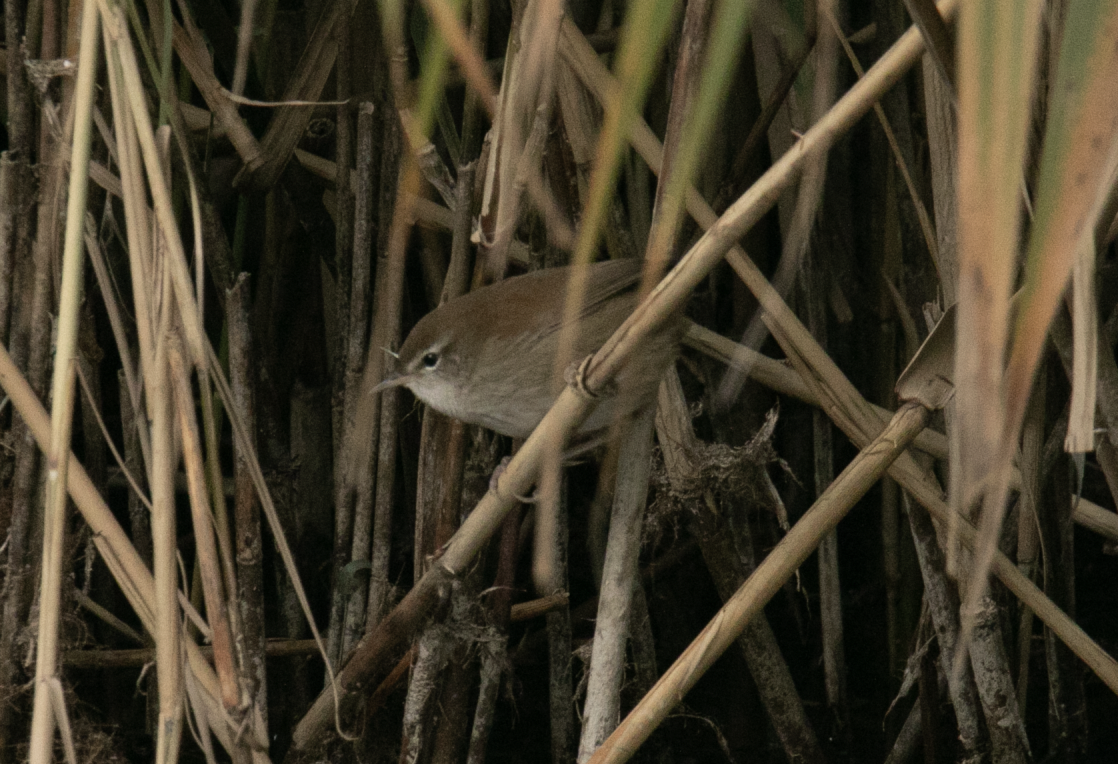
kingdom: Animalia
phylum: Chordata
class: Aves
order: Passeriformes
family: Cettiidae
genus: Cettia
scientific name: Cettia cetti
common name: Cetti's warbler
